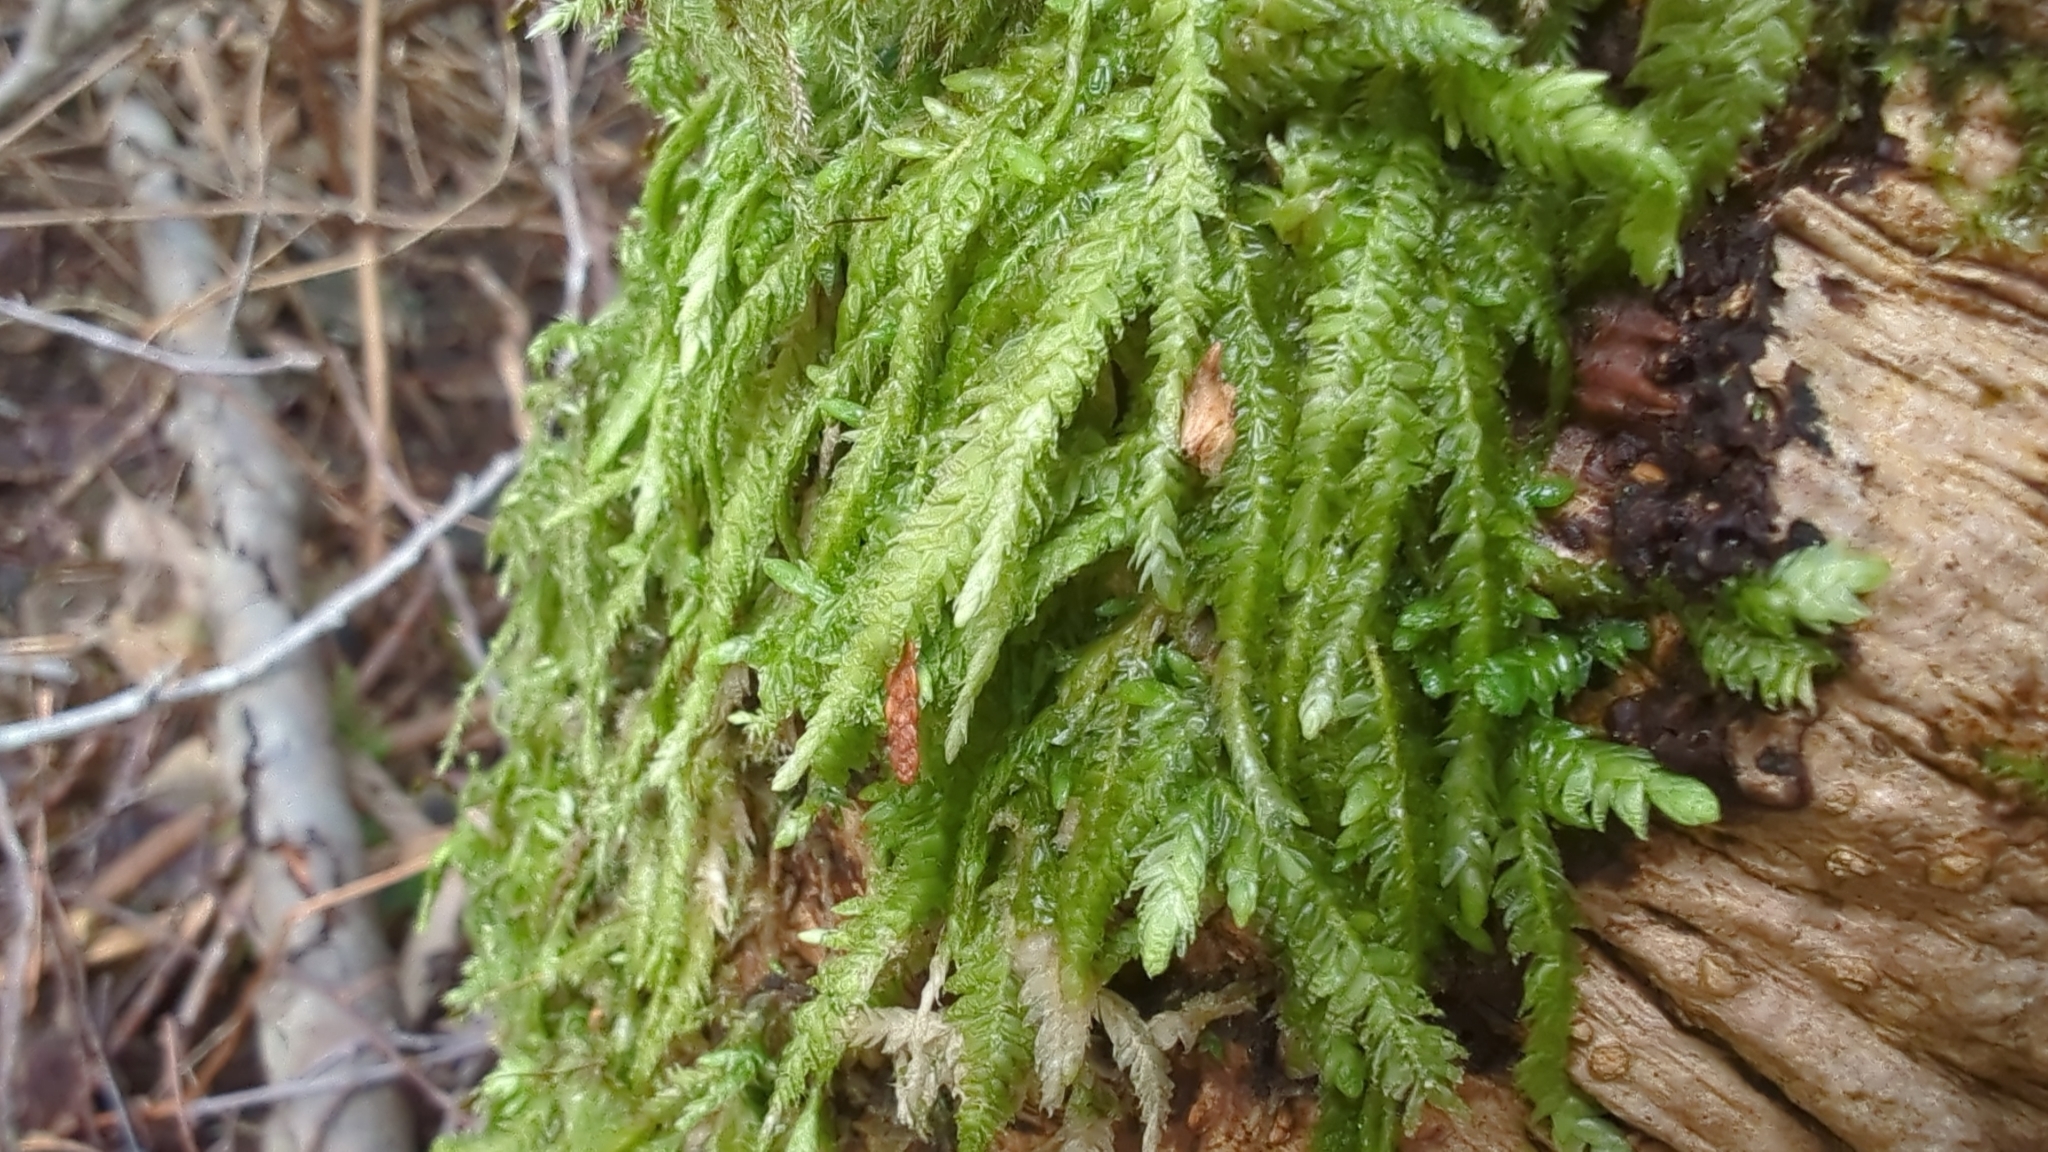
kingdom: Plantae
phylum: Bryophyta
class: Bryopsida
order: Hypnales
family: Plagiotheciaceae
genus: Plagiothecium
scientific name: Plagiothecium undulatum
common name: Waved silk-moss
